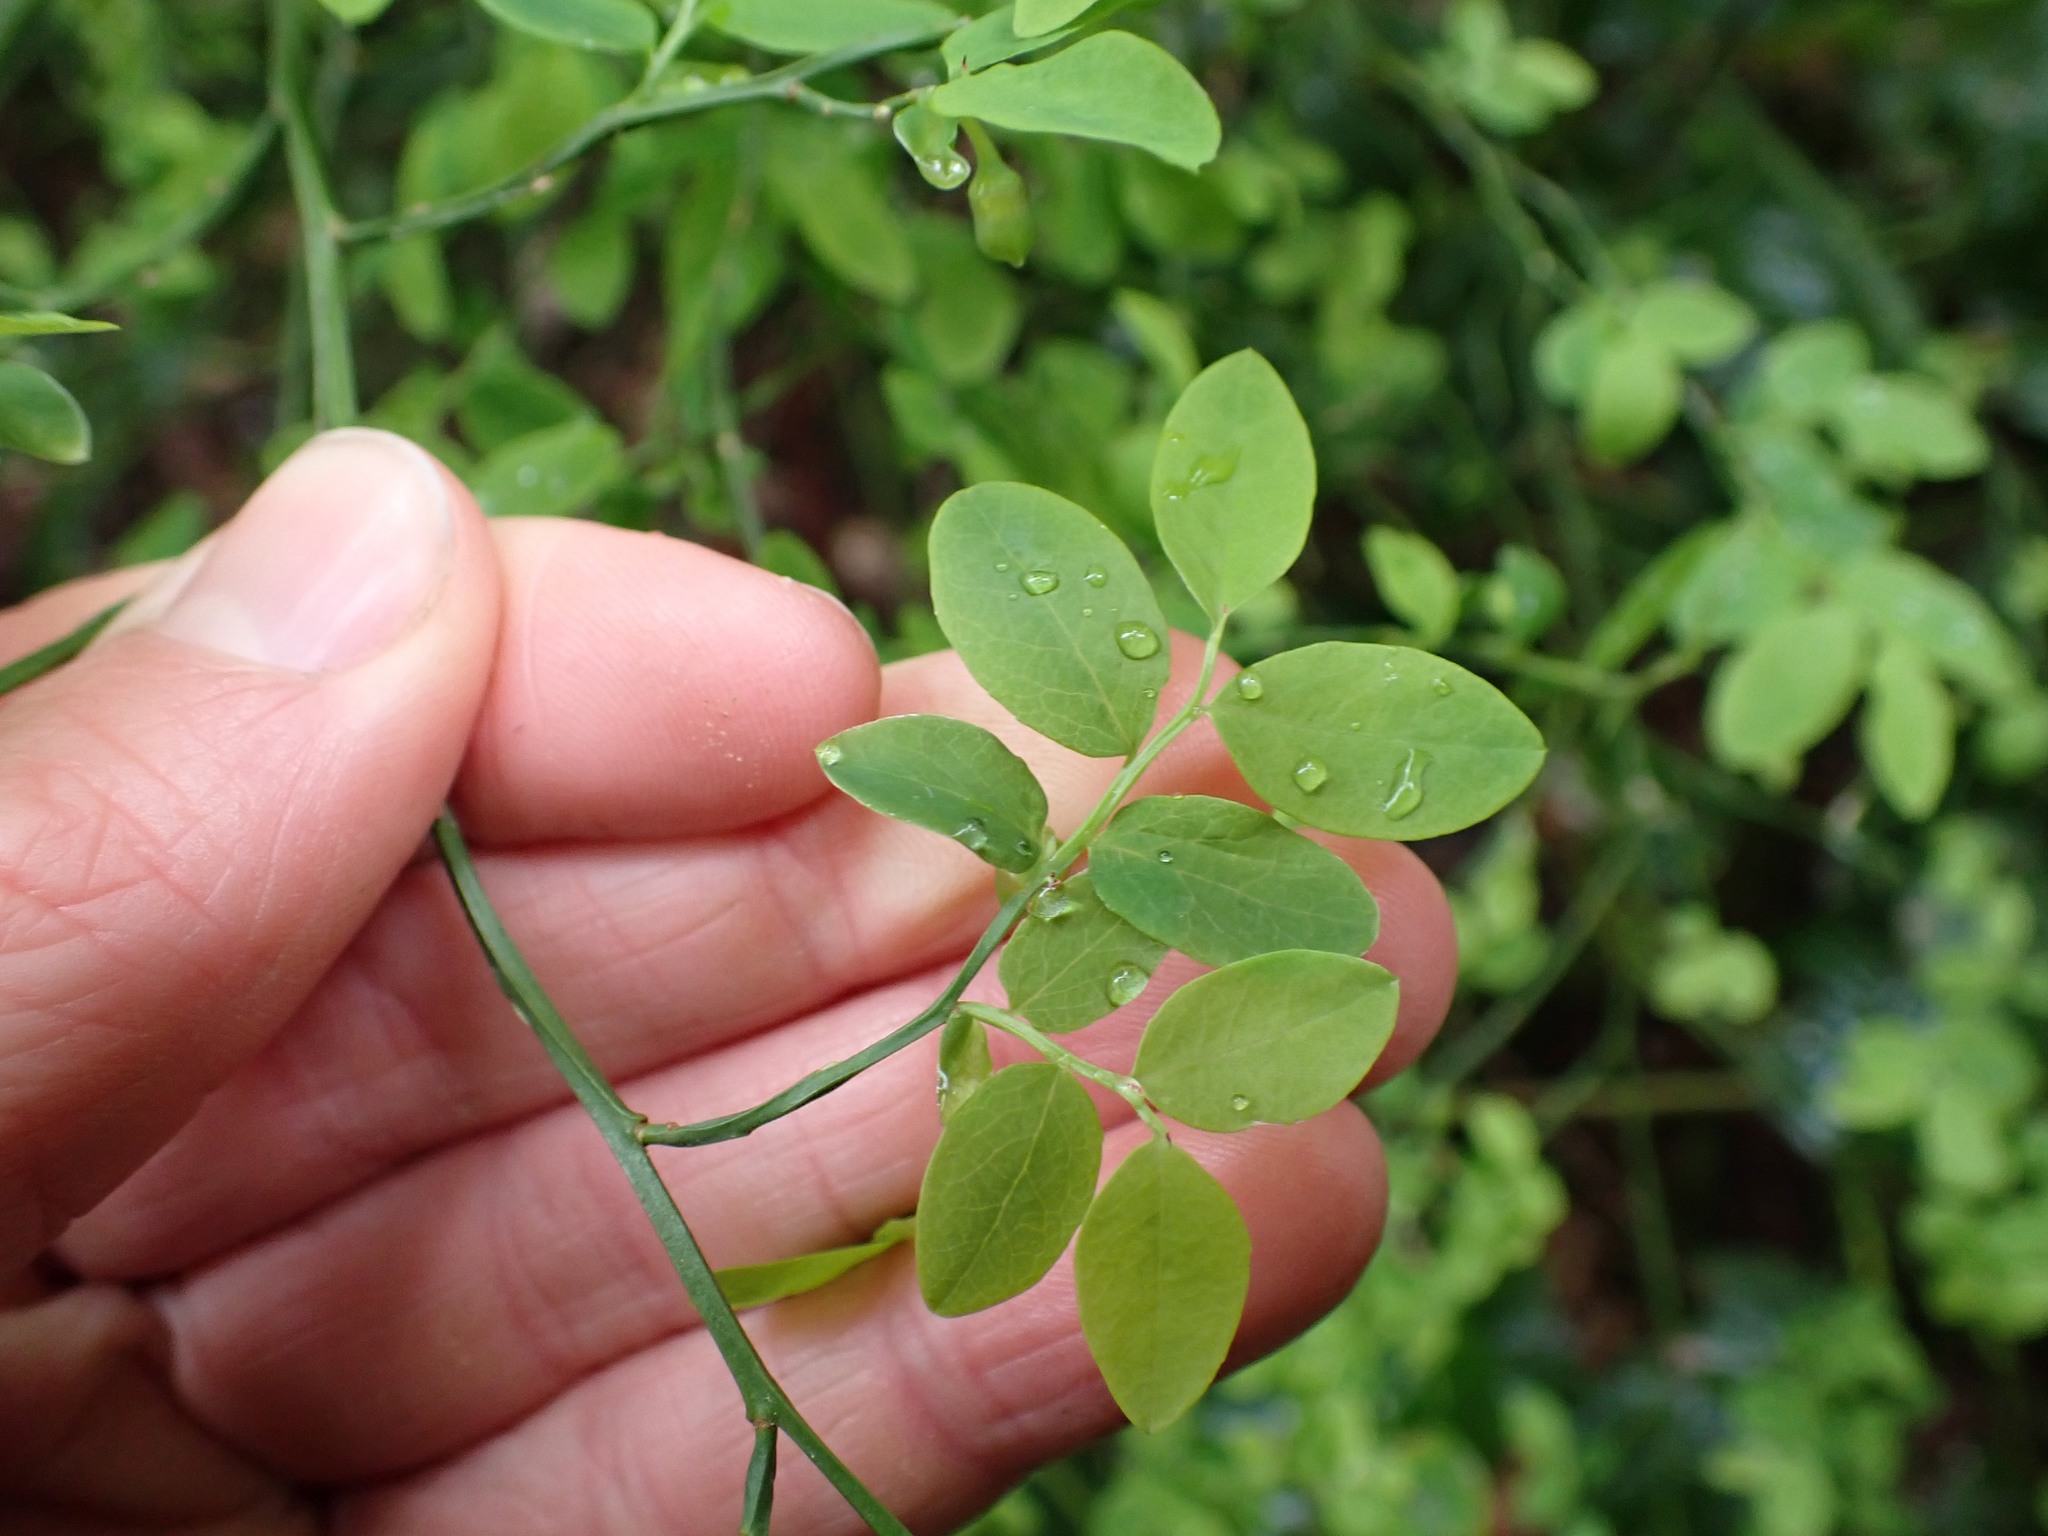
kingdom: Plantae
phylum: Tracheophyta
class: Magnoliopsida
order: Ericales
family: Ericaceae
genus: Vaccinium
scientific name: Vaccinium parvifolium
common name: Red-huckleberry
